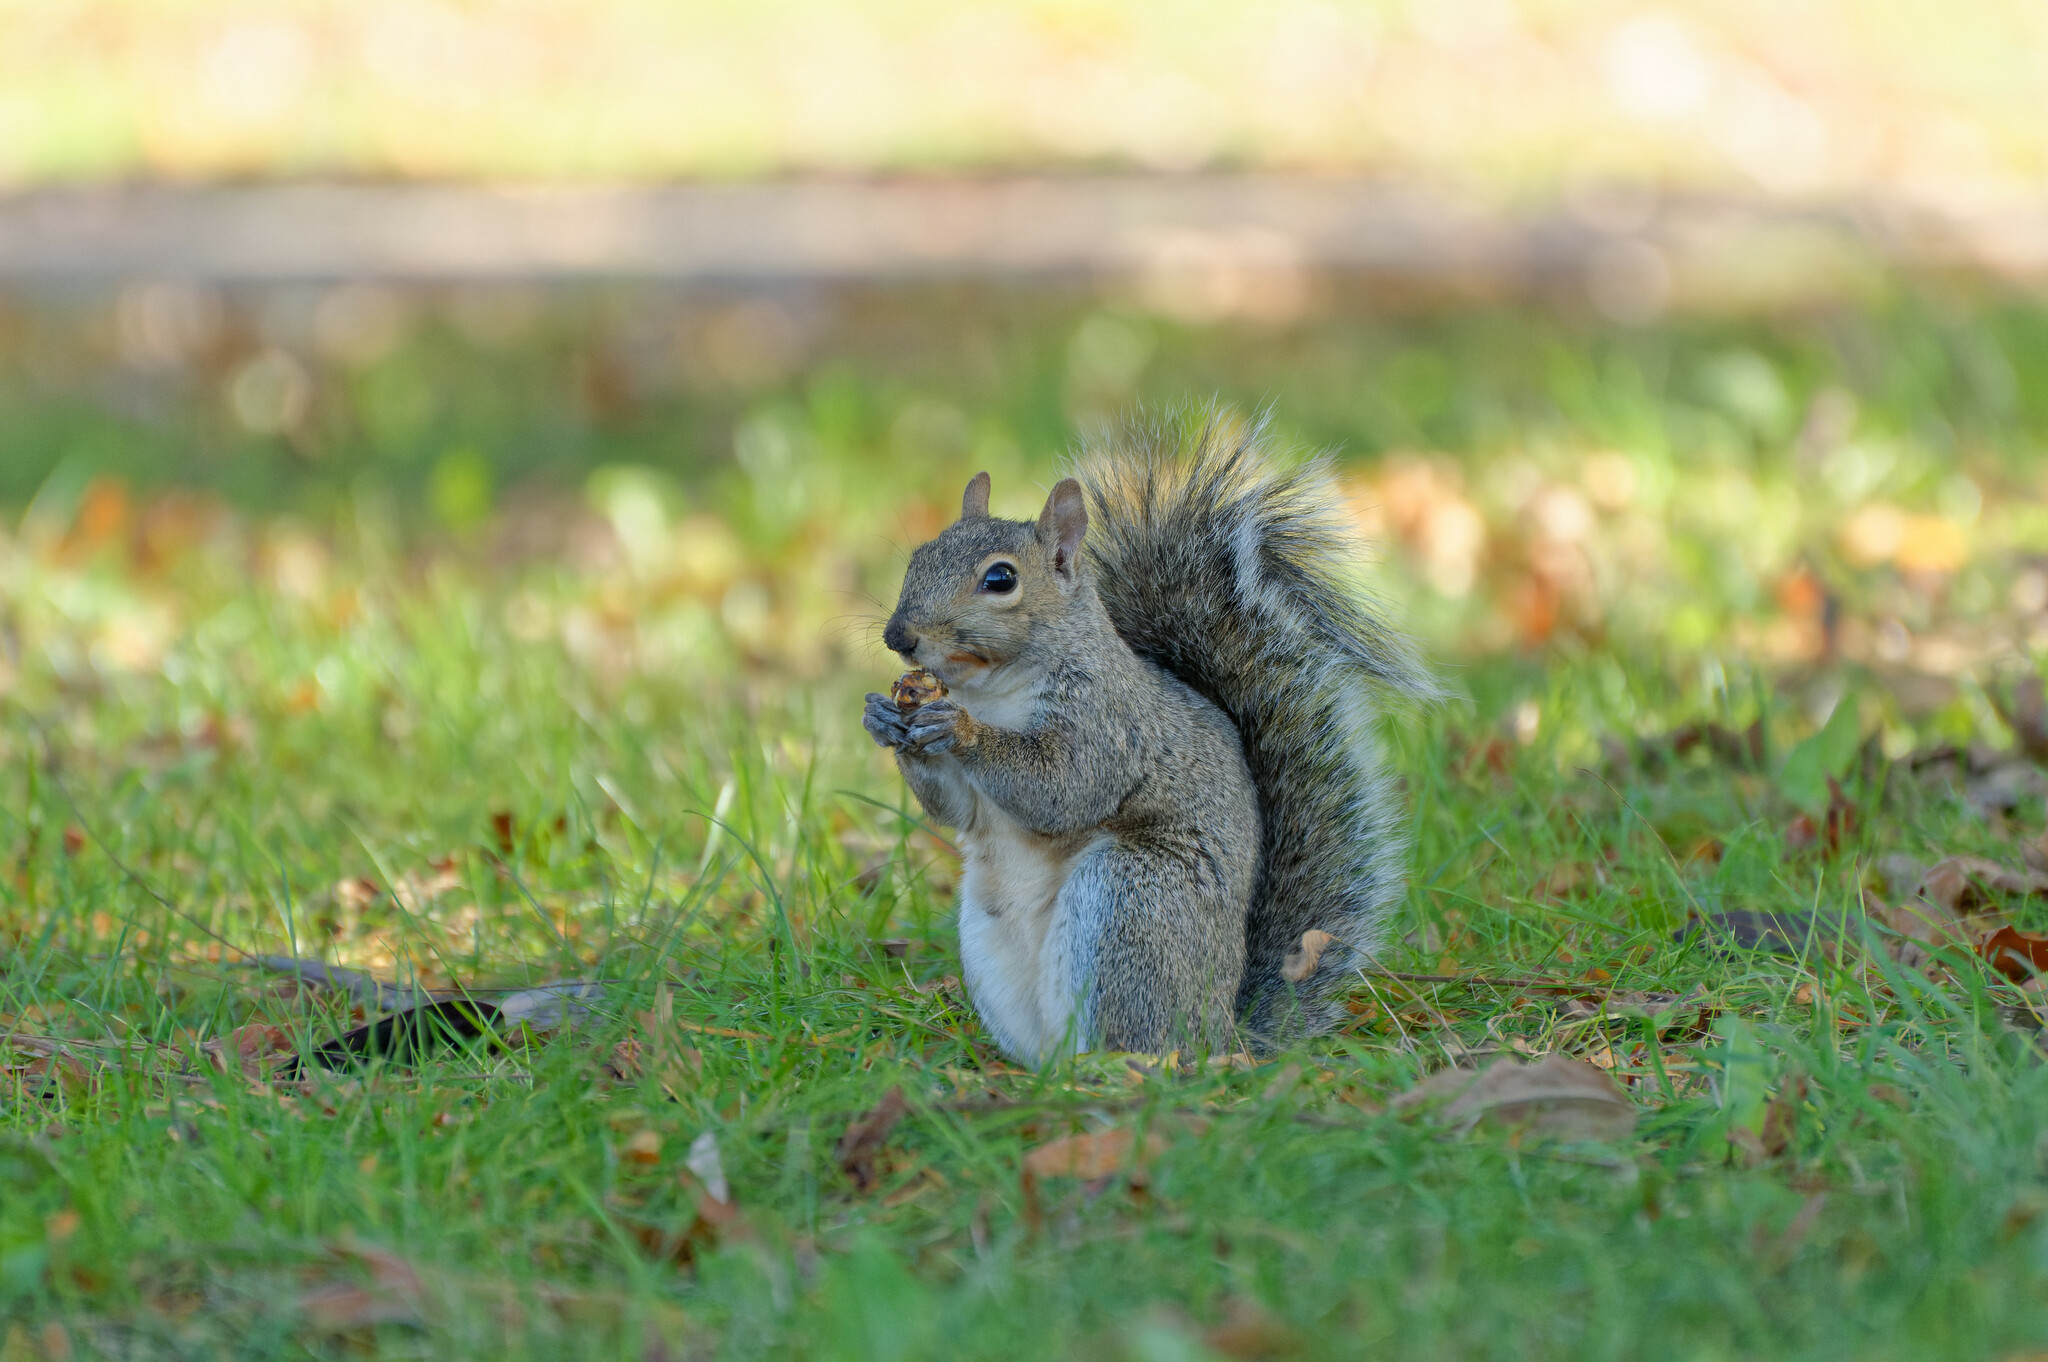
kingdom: Animalia
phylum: Chordata
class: Mammalia
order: Rodentia
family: Sciuridae
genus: Sciurus
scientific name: Sciurus carolinensis
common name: Eastern gray squirrel
